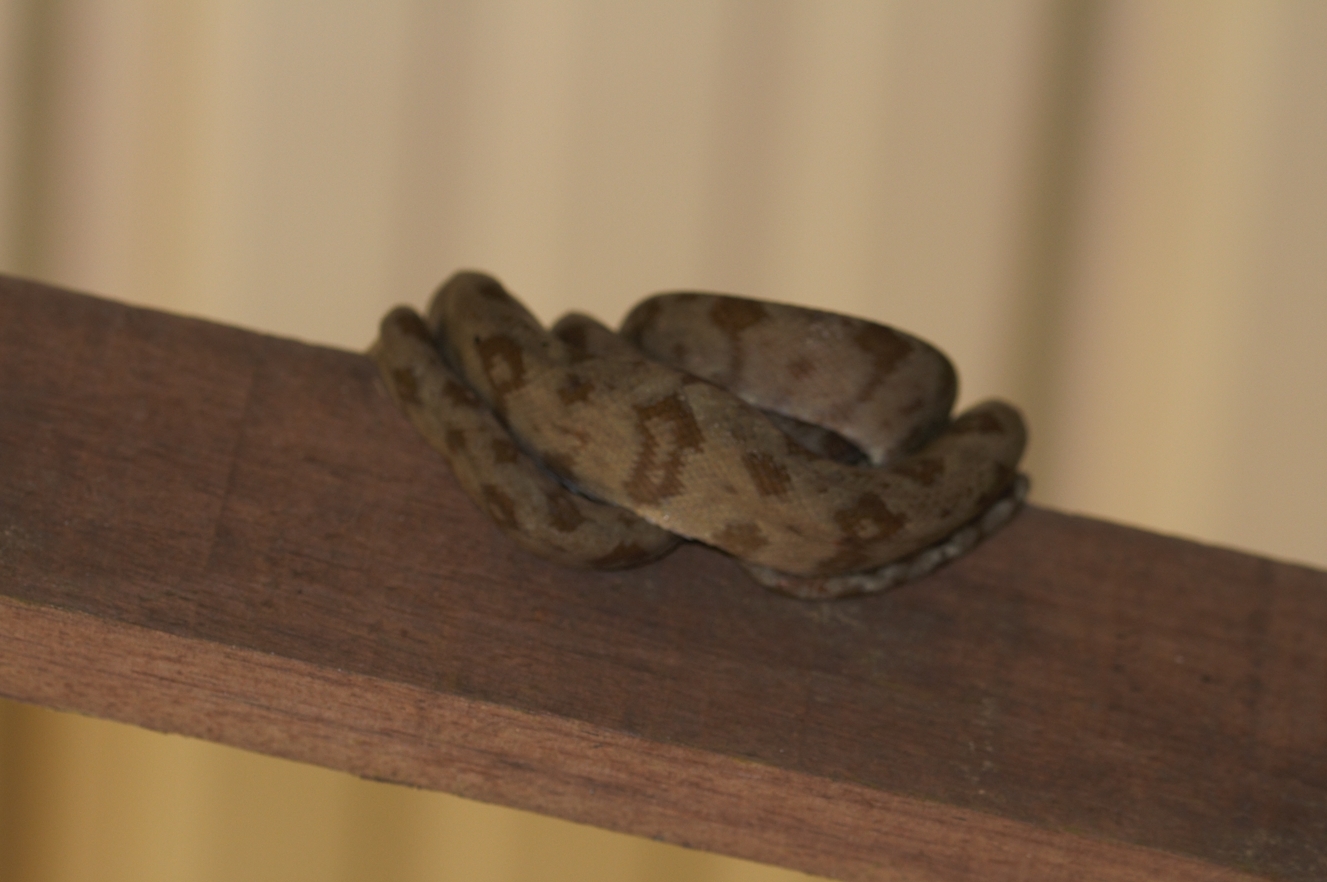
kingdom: Animalia
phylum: Chordata
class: Squamata
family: Boidae
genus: Corallus
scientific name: Corallus hortulana
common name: Garden tree boa
